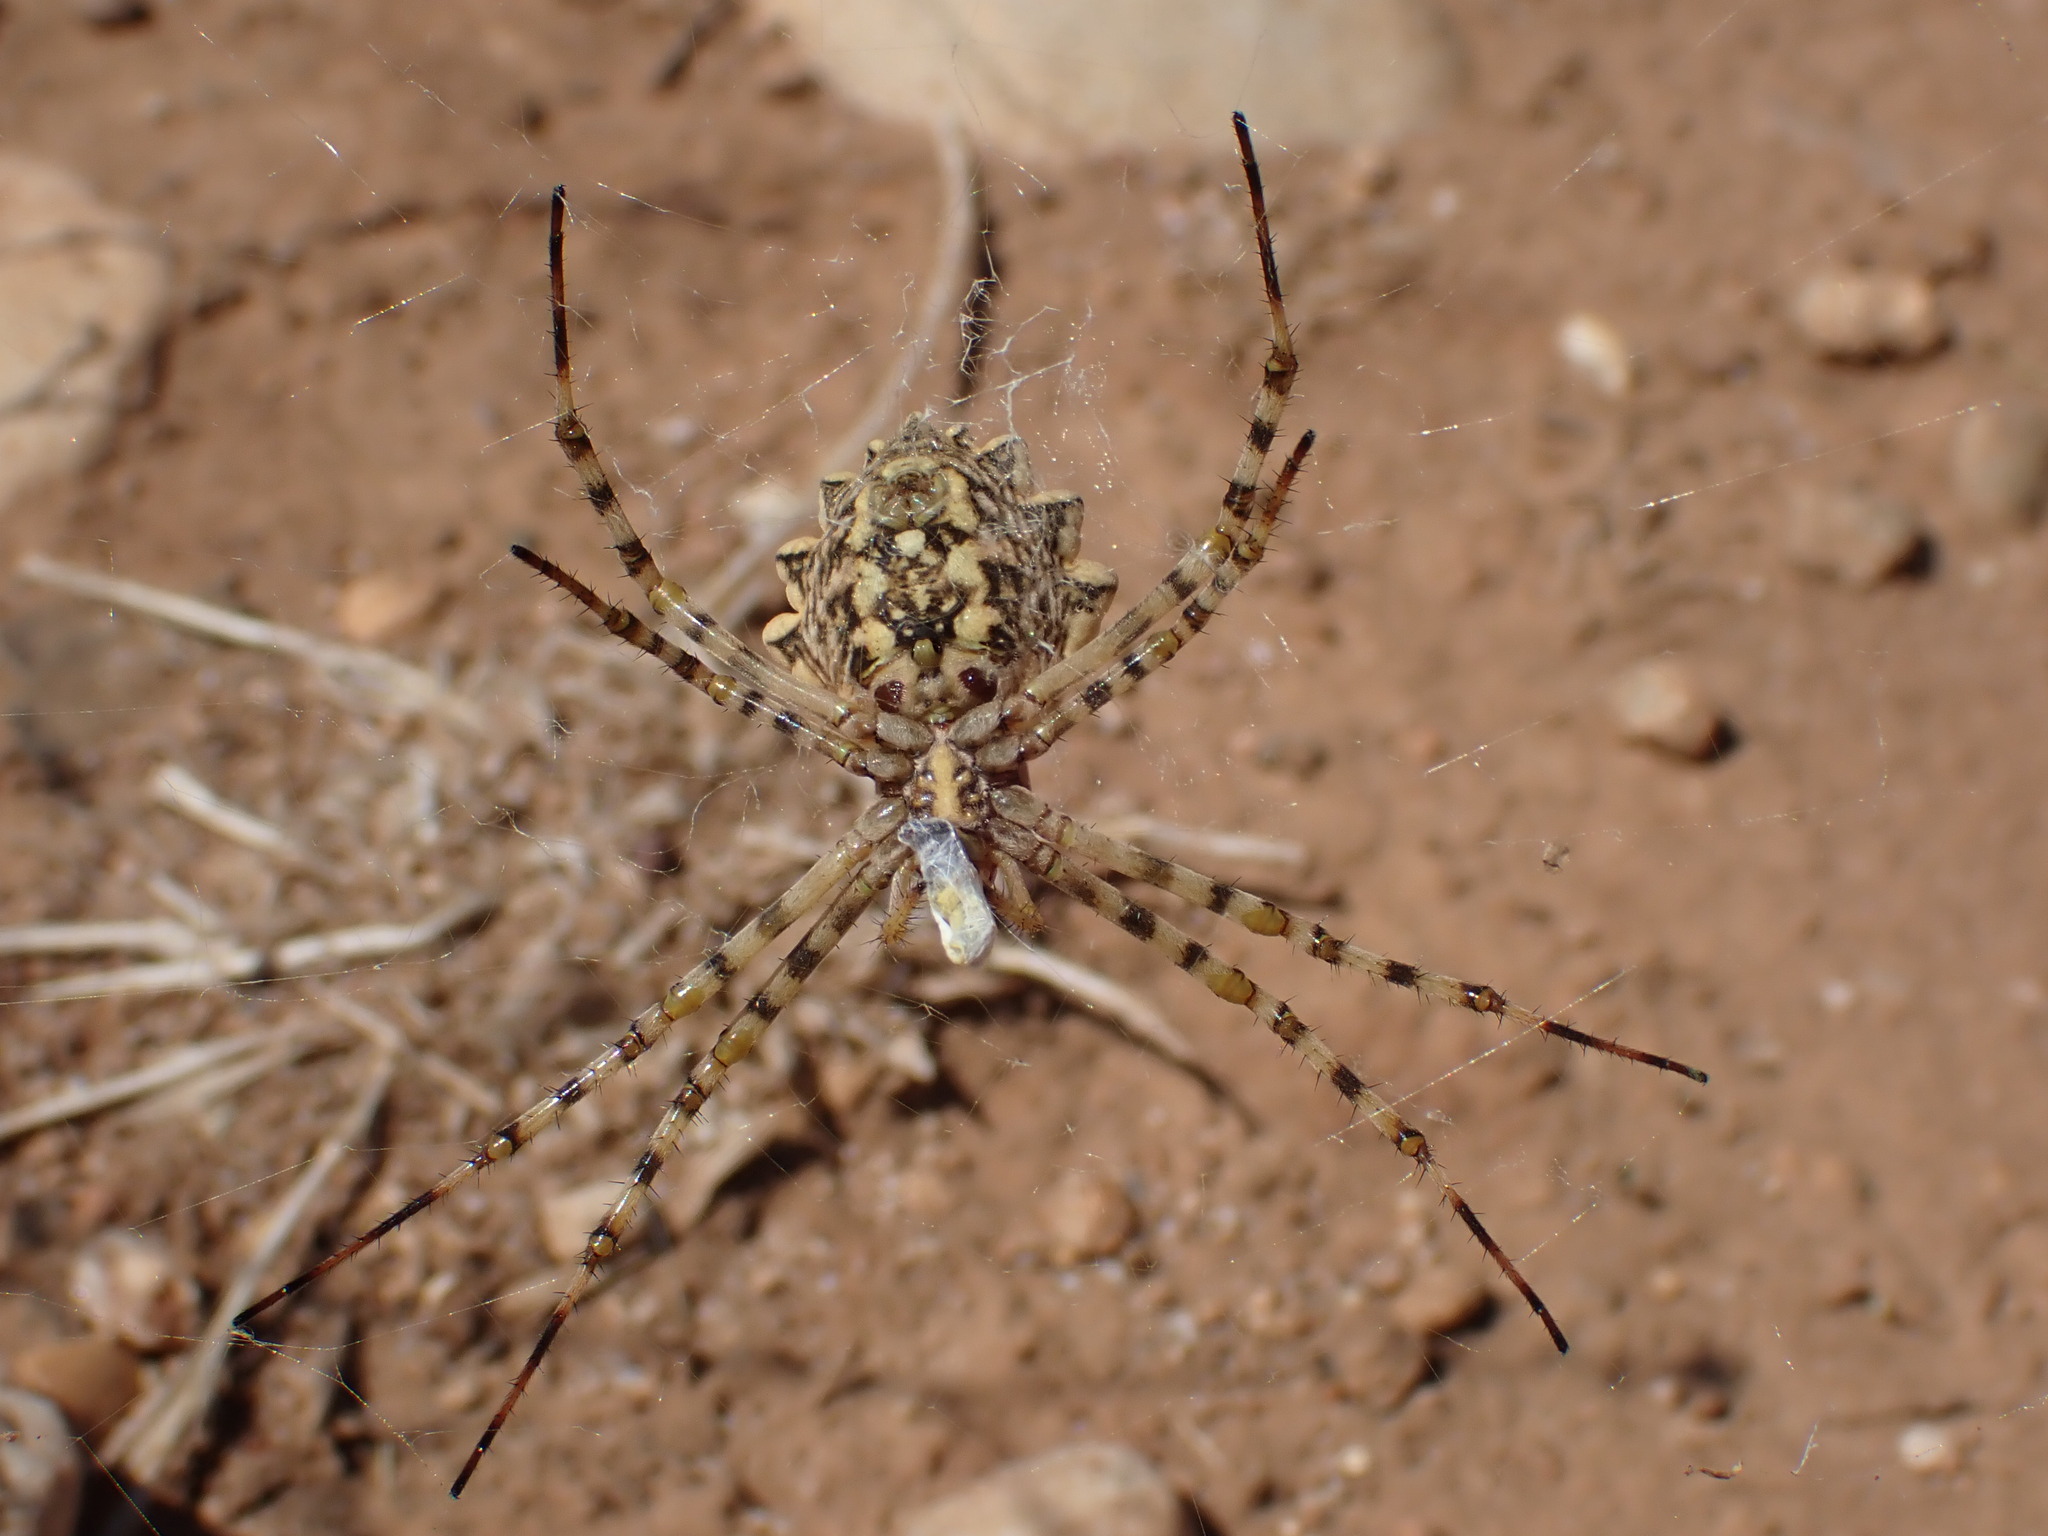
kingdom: Animalia
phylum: Arthropoda
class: Arachnida
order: Araneae
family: Araneidae
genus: Argiope
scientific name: Argiope lobata
